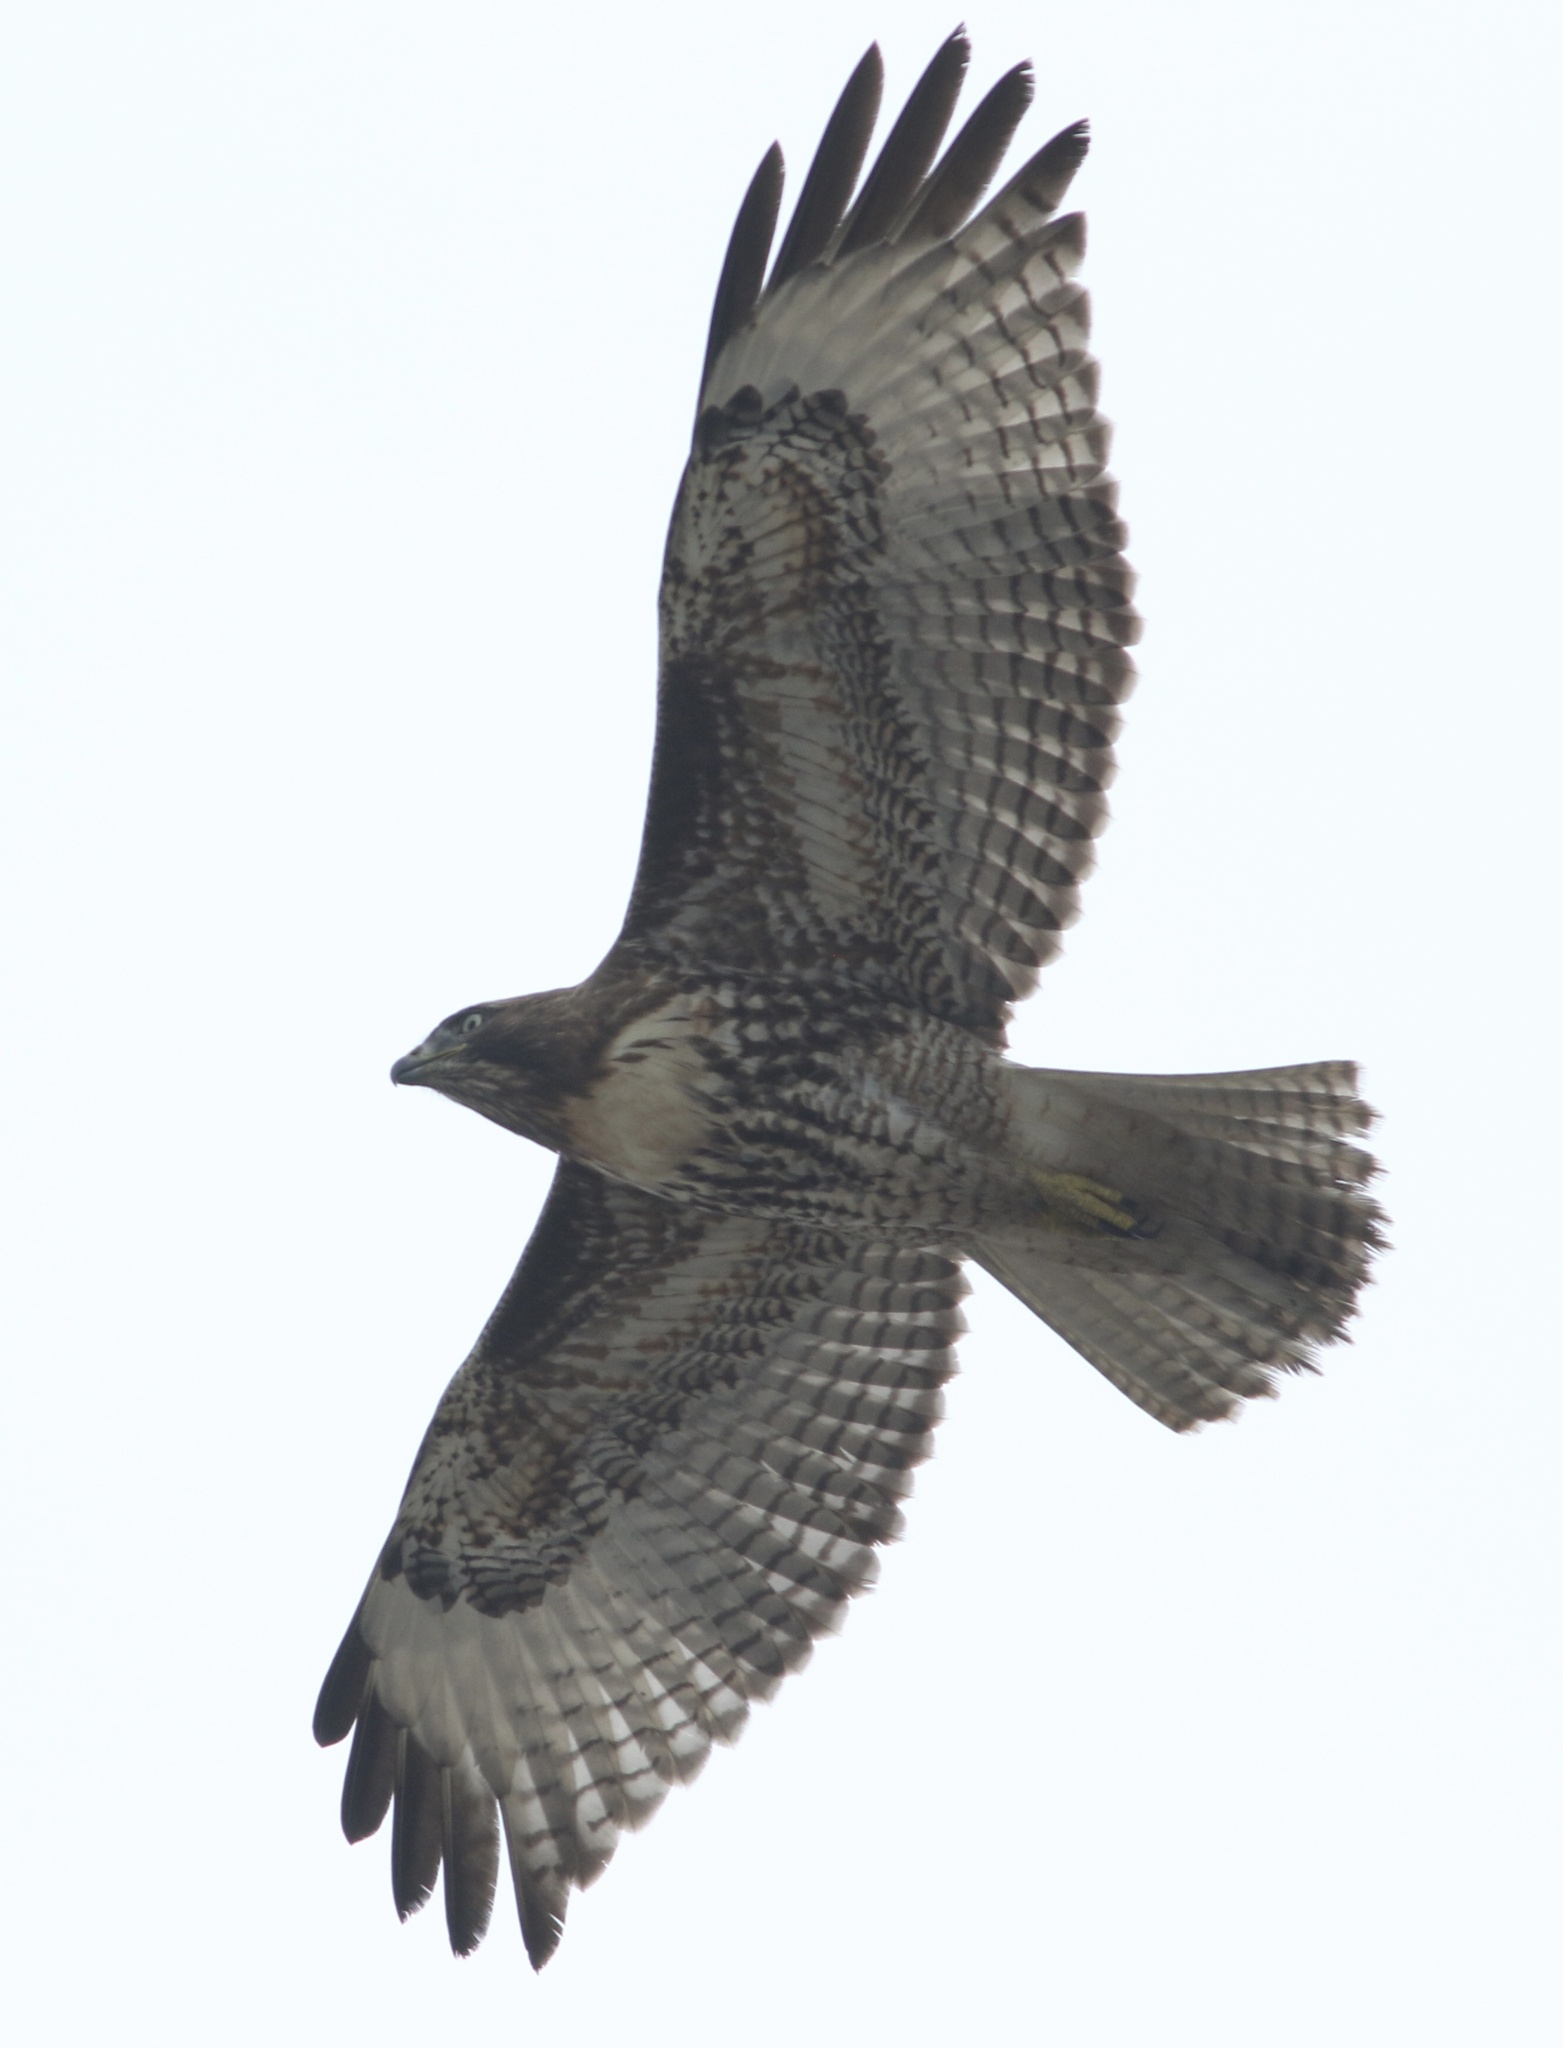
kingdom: Animalia
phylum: Chordata
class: Aves
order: Accipitriformes
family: Accipitridae
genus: Buteo
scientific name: Buteo jamaicensis
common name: Red-tailed hawk
